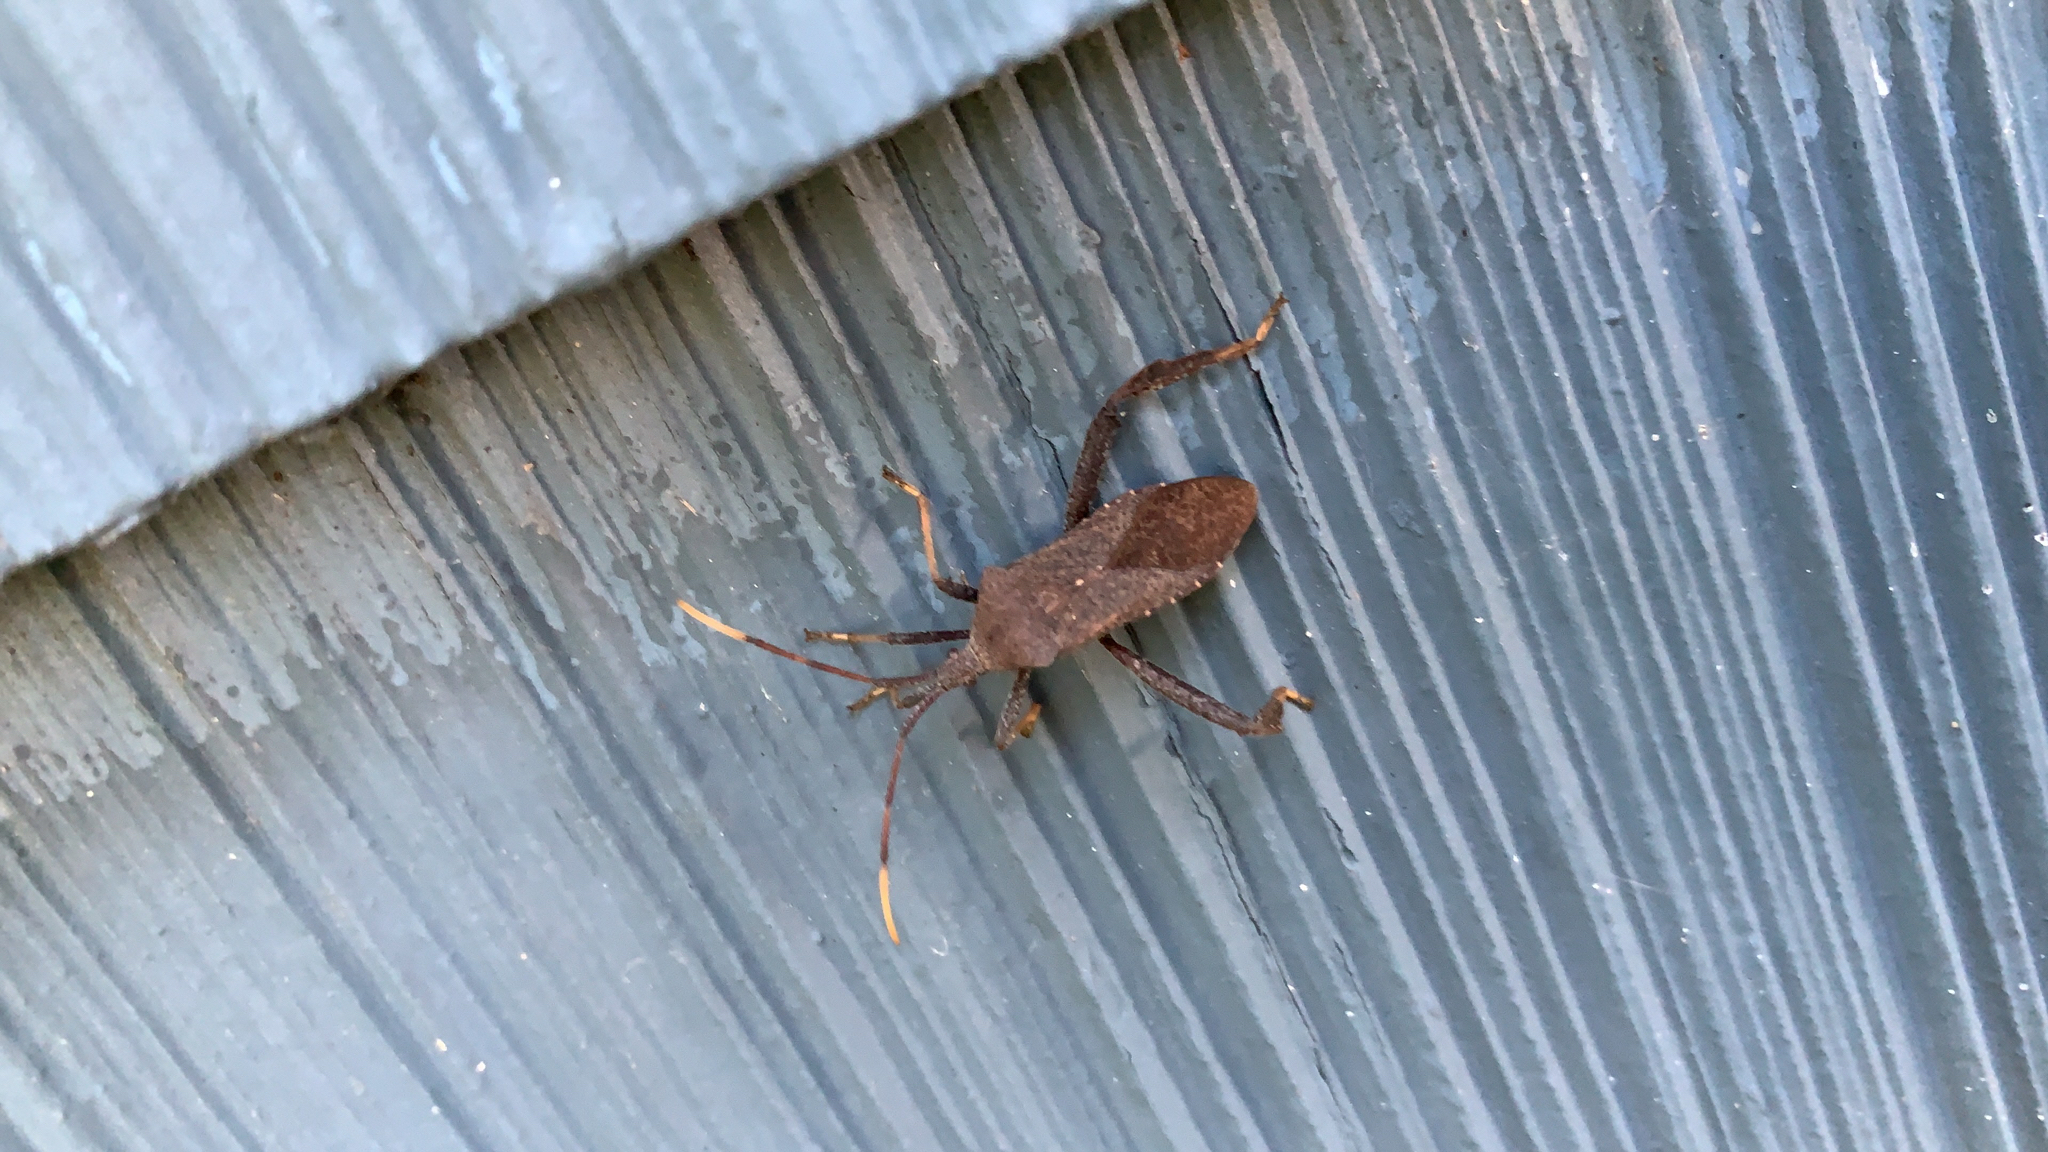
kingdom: Animalia
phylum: Arthropoda
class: Insecta
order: Hemiptera
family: Coreidae
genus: Acanthocephala
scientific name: Acanthocephala terminalis
